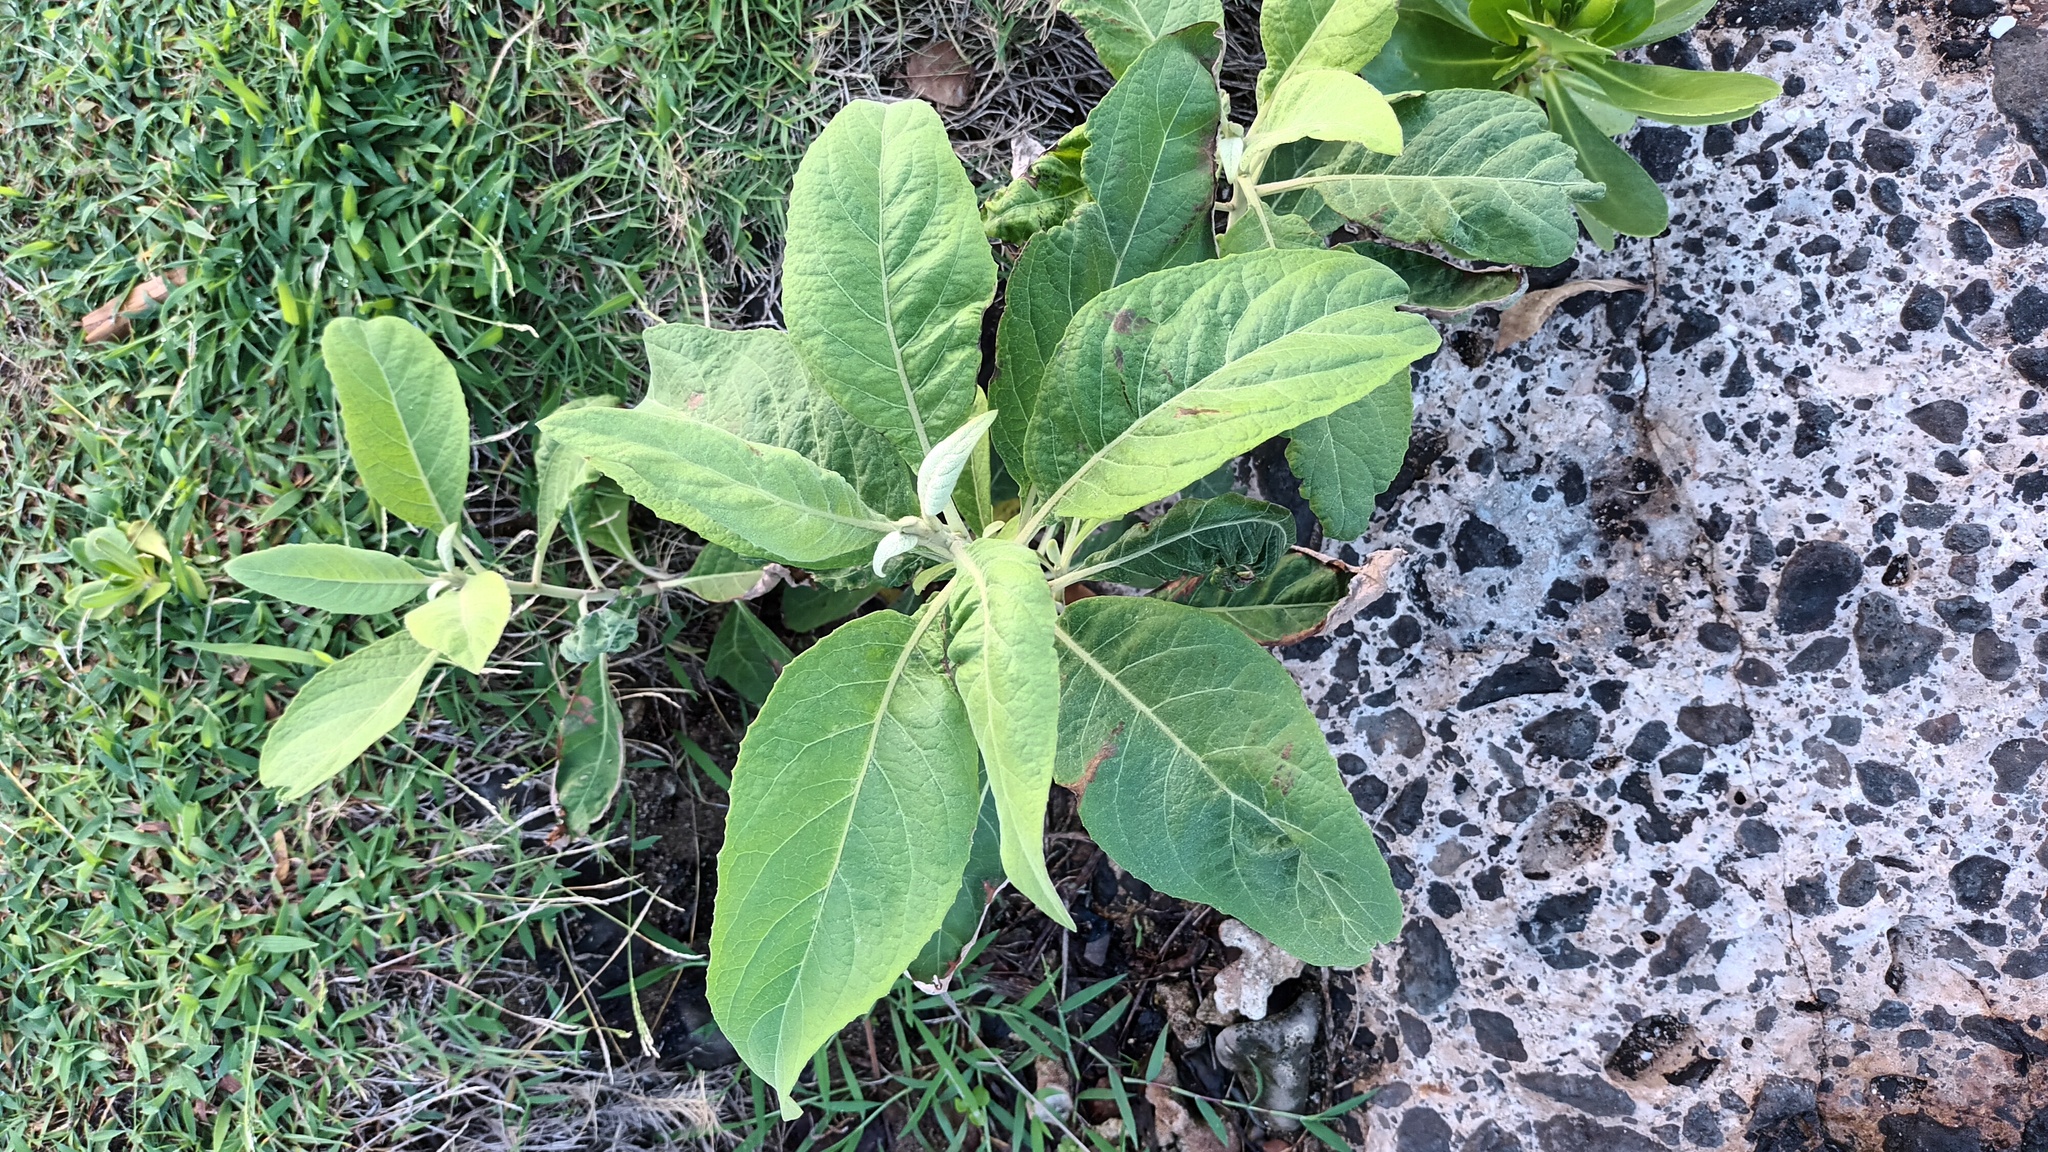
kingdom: Plantae
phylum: Tracheophyta
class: Magnoliopsida
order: Asterales
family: Asteraceae
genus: Pluchea
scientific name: Pluchea carolinensis
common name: Marsh fleabane
